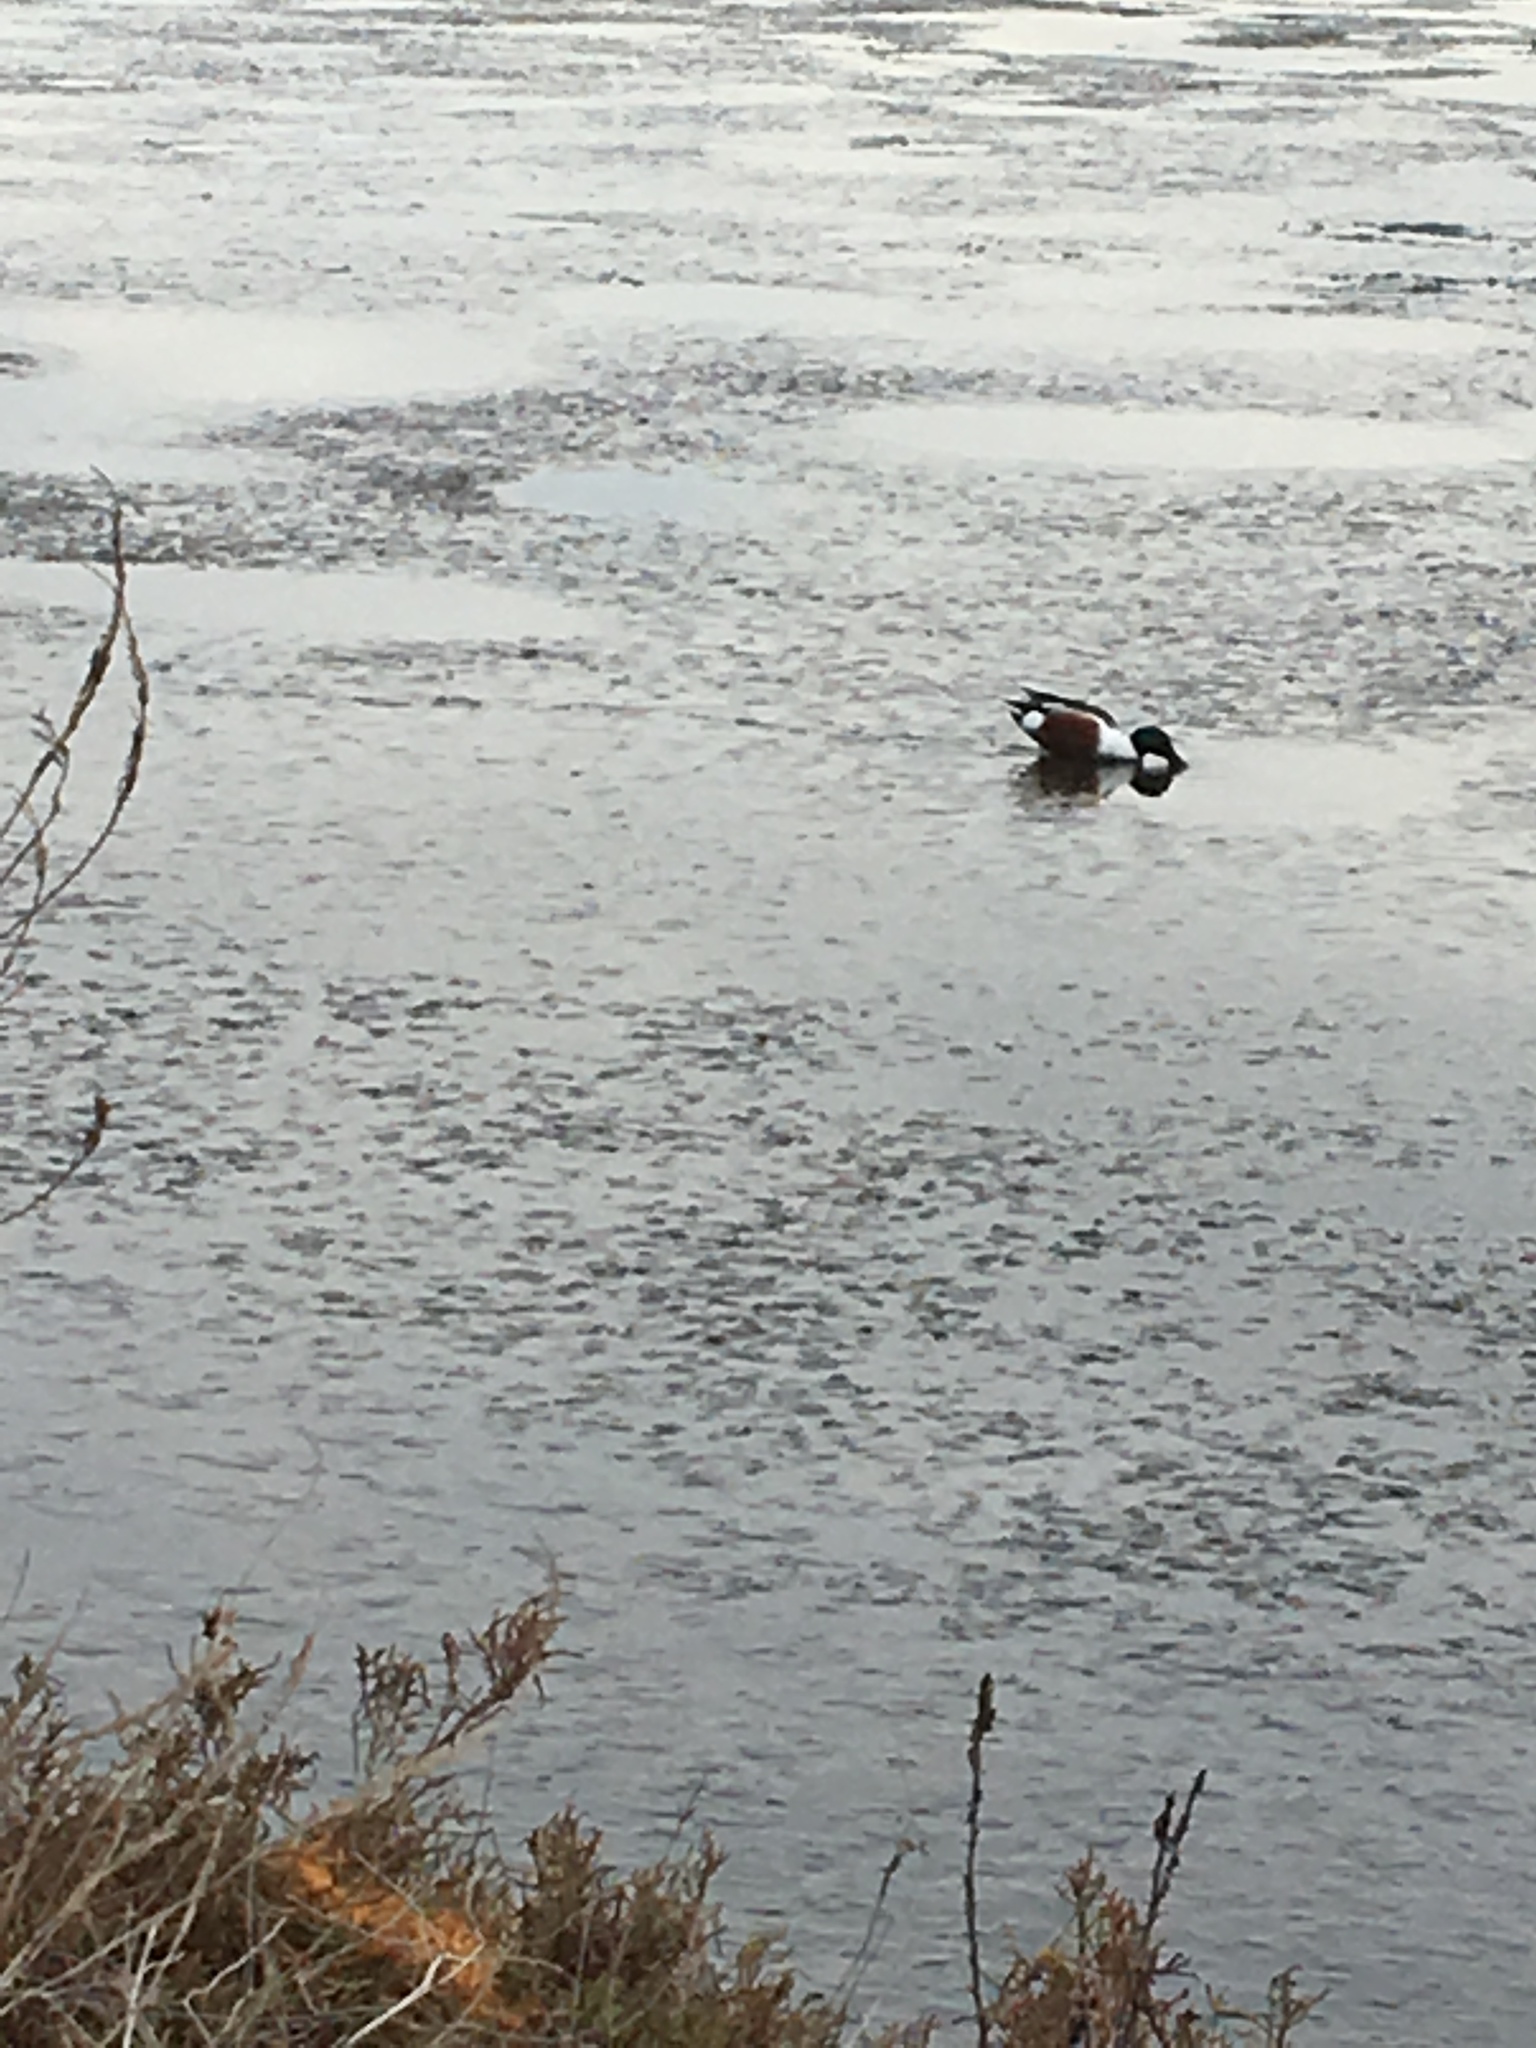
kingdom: Animalia
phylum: Chordata
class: Aves
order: Anseriformes
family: Anatidae
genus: Spatula
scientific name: Spatula clypeata
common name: Northern shoveler
